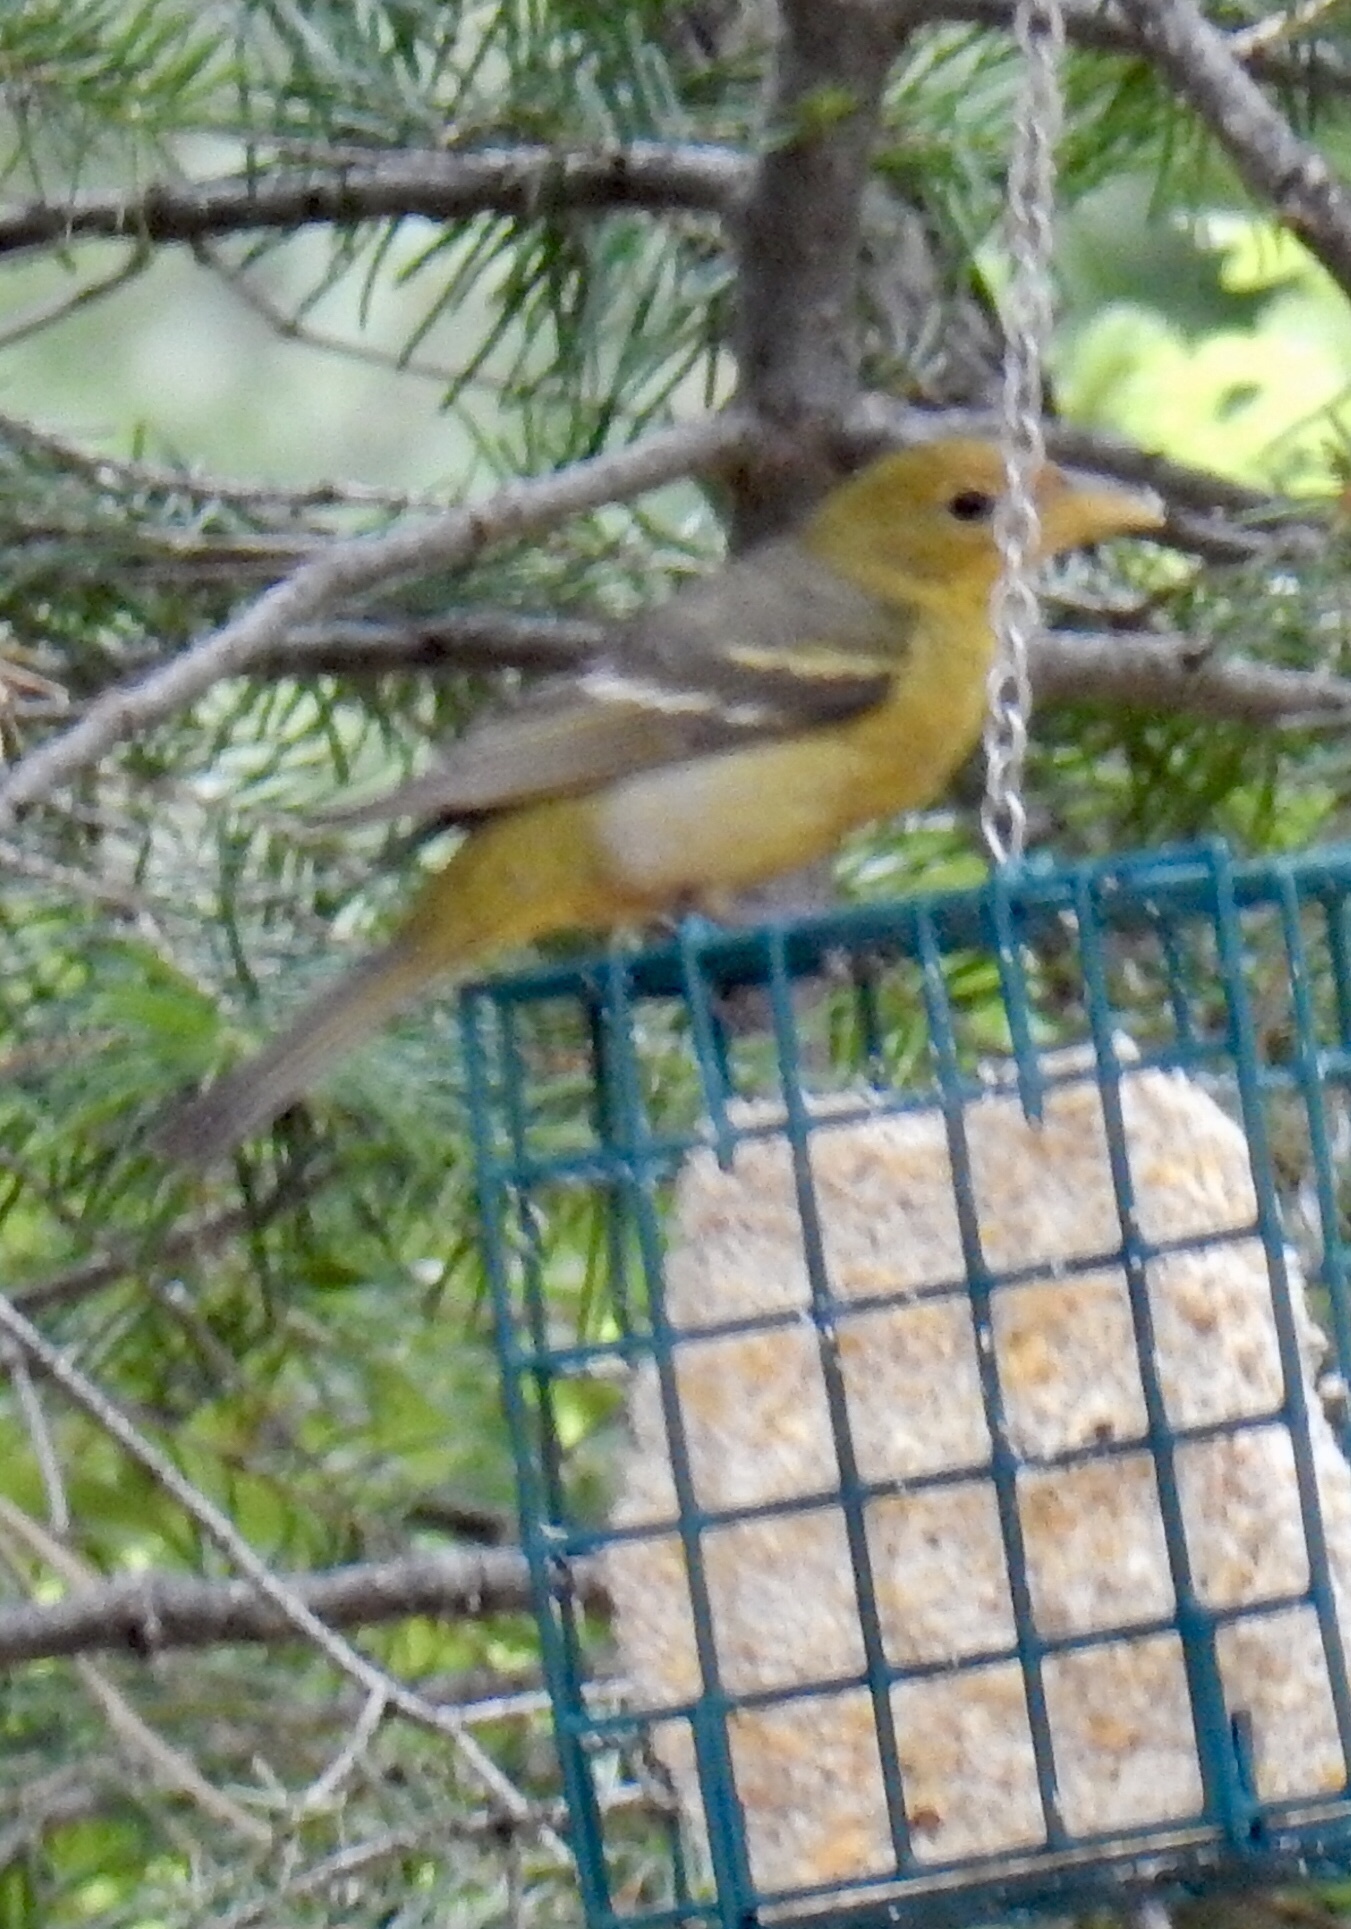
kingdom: Animalia
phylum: Chordata
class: Aves
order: Passeriformes
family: Cardinalidae
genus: Piranga
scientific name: Piranga ludoviciana
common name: Western tanager
